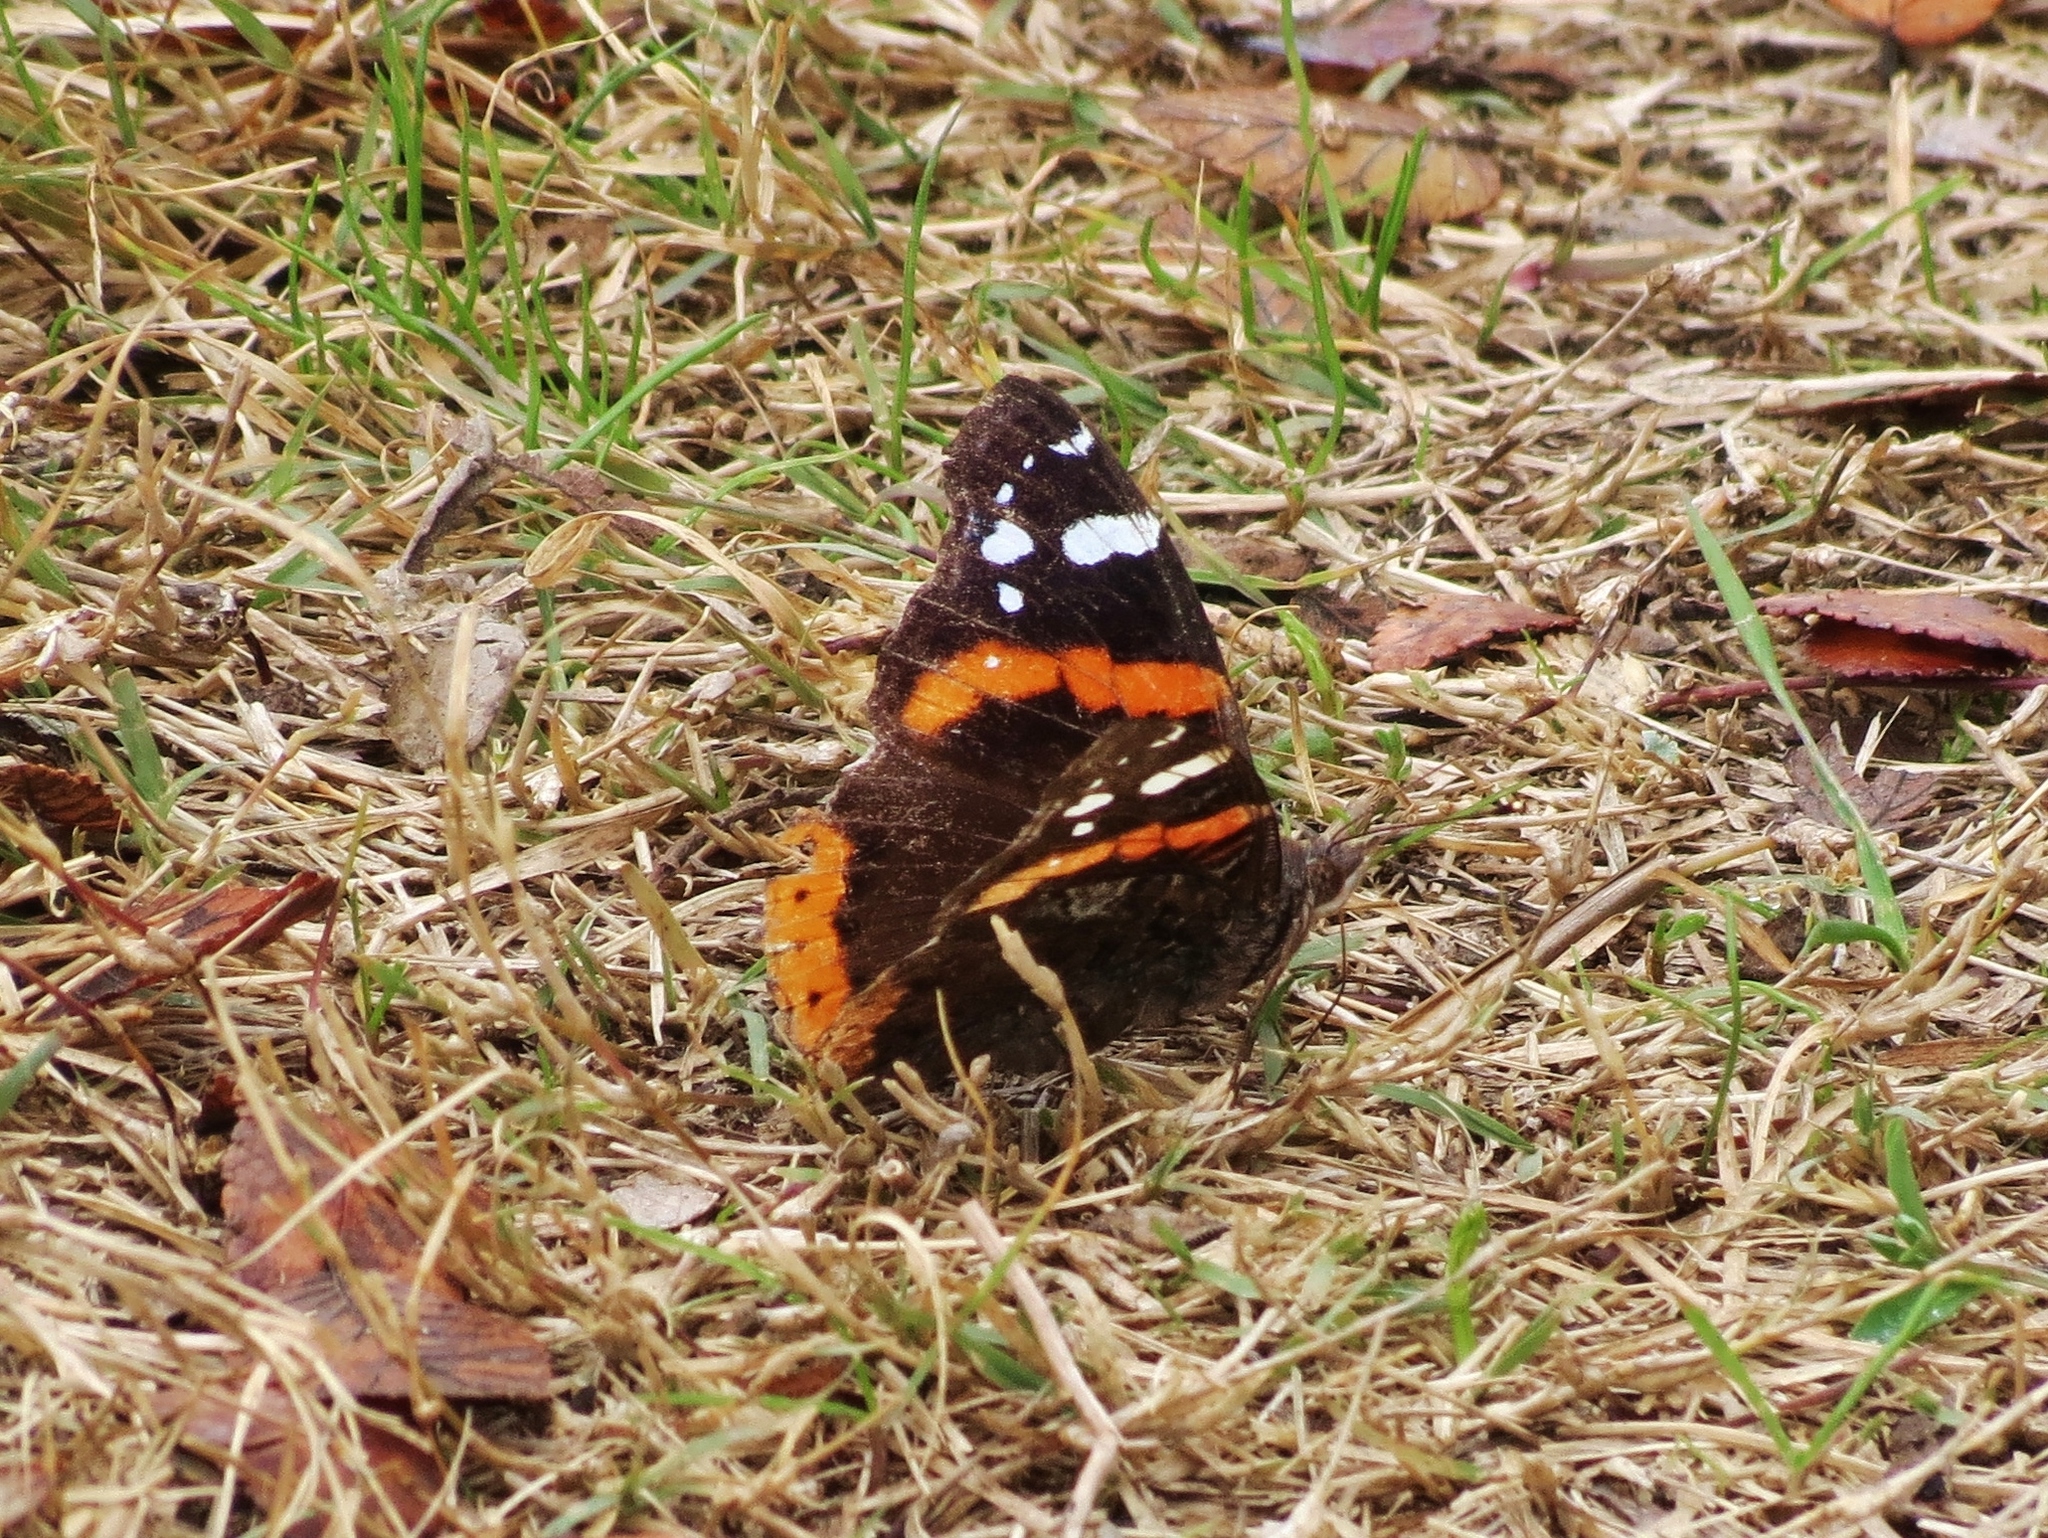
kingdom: Animalia
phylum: Arthropoda
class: Insecta
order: Lepidoptera
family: Nymphalidae
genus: Vanessa
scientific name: Vanessa atalanta
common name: Red admiral
